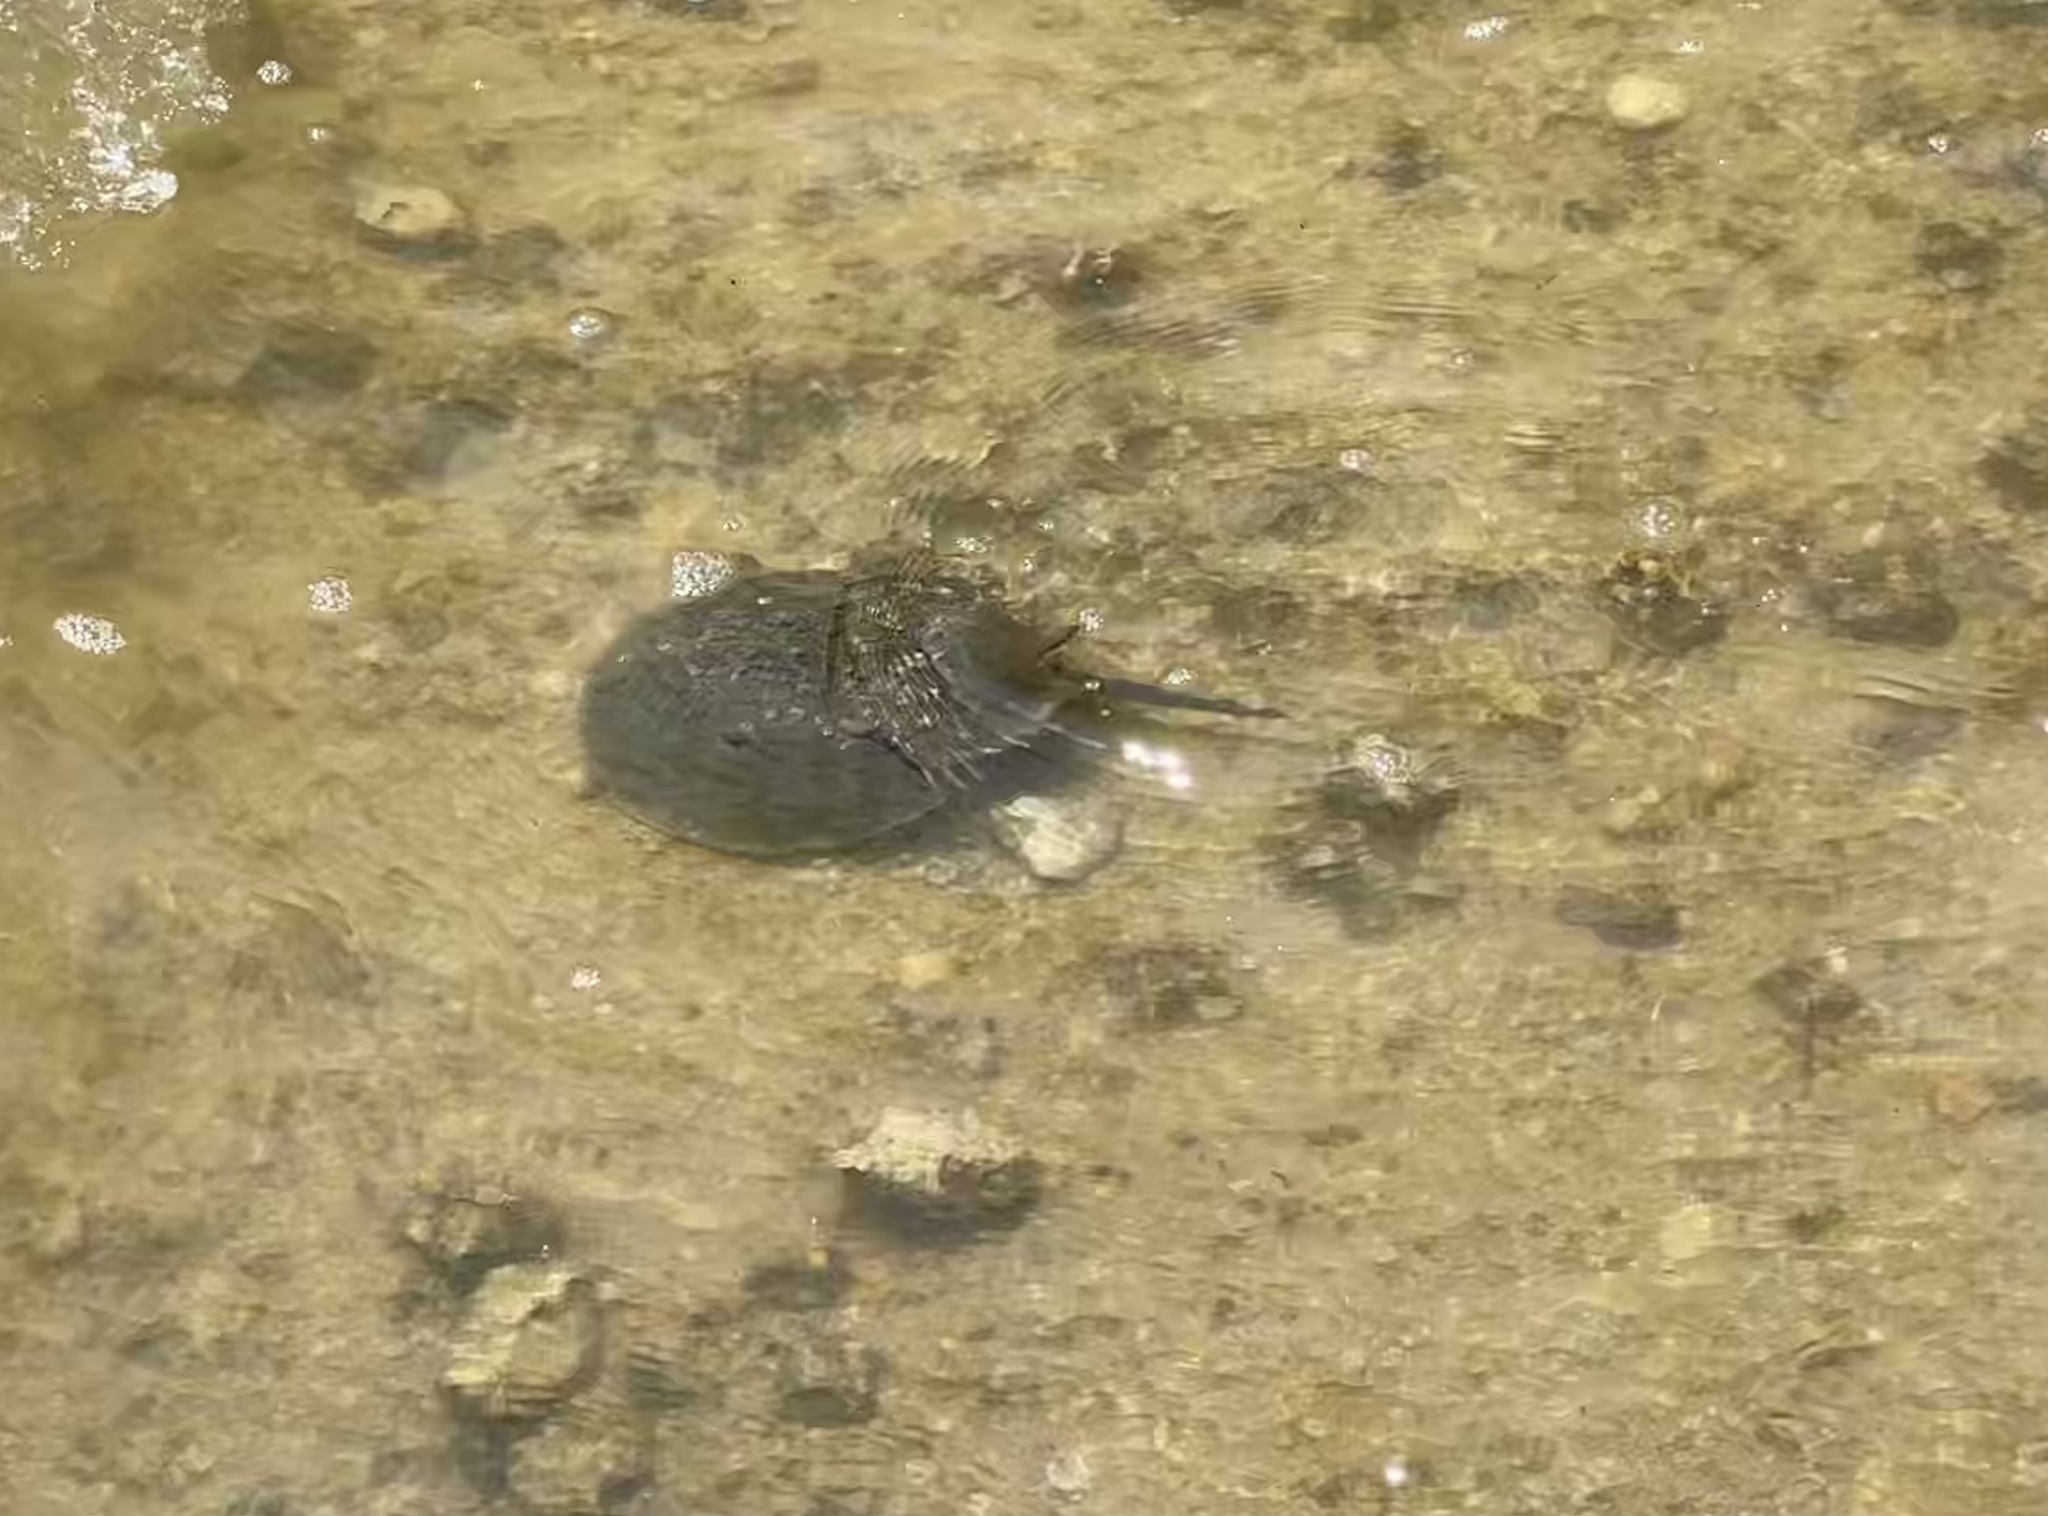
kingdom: Animalia
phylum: Arthropoda
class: Merostomata
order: Xiphosurida
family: Limulidae
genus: Limulus
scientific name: Limulus polyphemus
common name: Horseshoe crab
